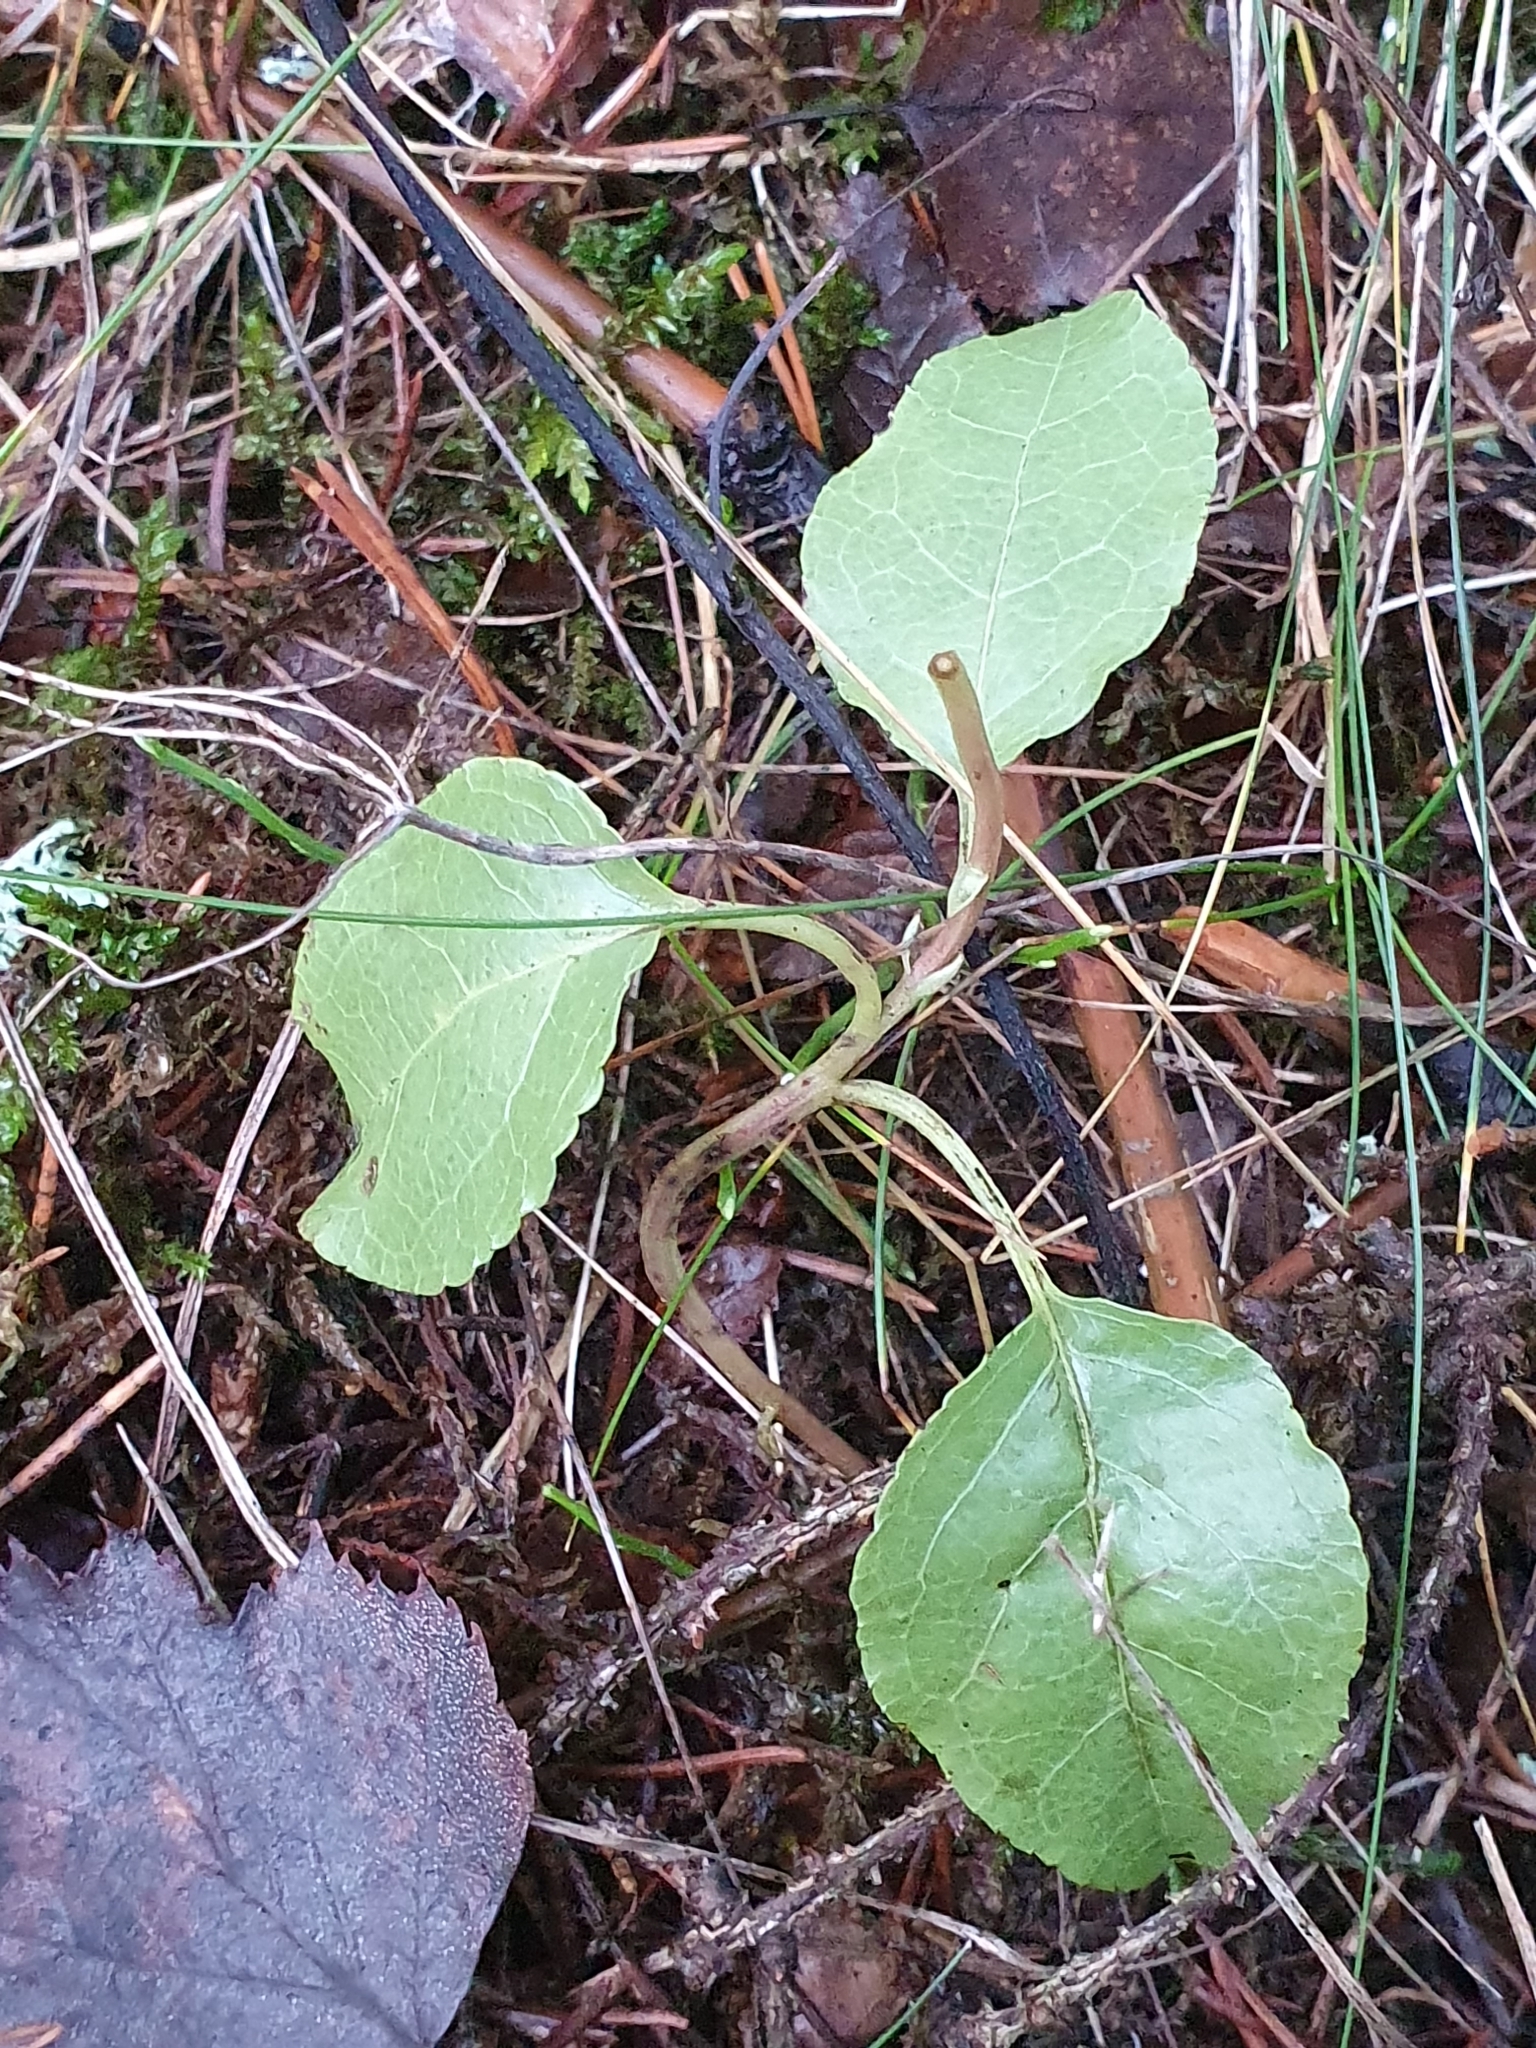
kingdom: Plantae
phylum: Tracheophyta
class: Magnoliopsida
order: Ericales
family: Ericaceae
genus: Orthilia
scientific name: Orthilia secunda
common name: One-sided orthilia
